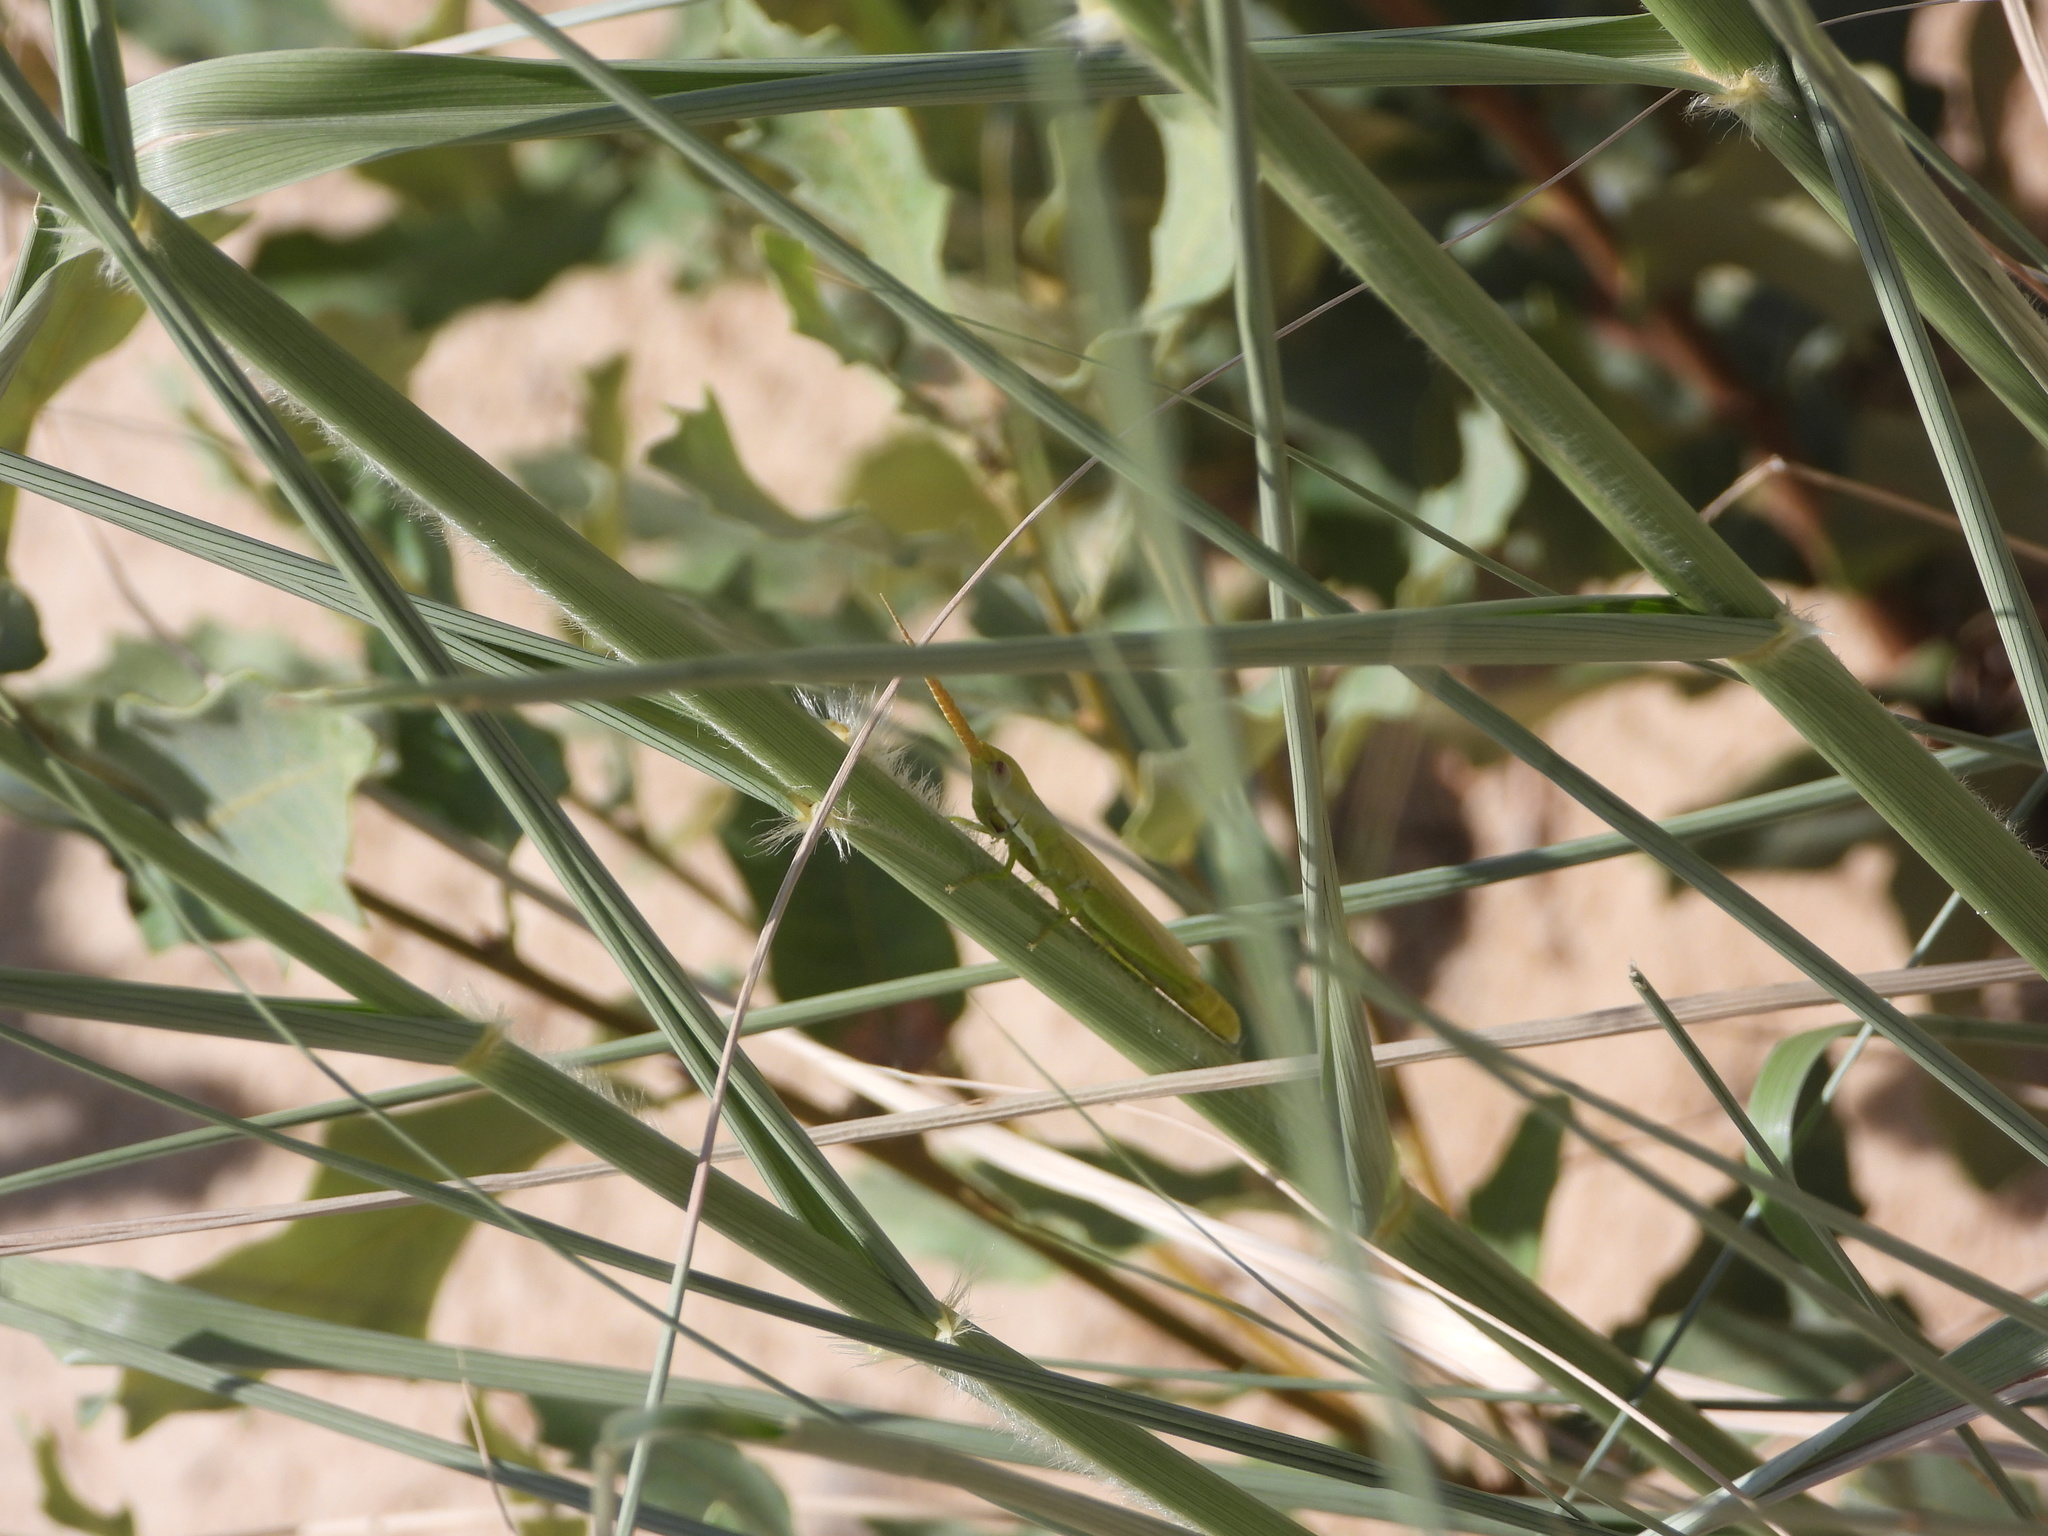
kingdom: Animalia
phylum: Arthropoda
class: Insecta
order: Orthoptera
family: Acrididae
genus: Paropomala
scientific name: Paropomala wyomingensis
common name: Wyoming toothpick grasshopper
